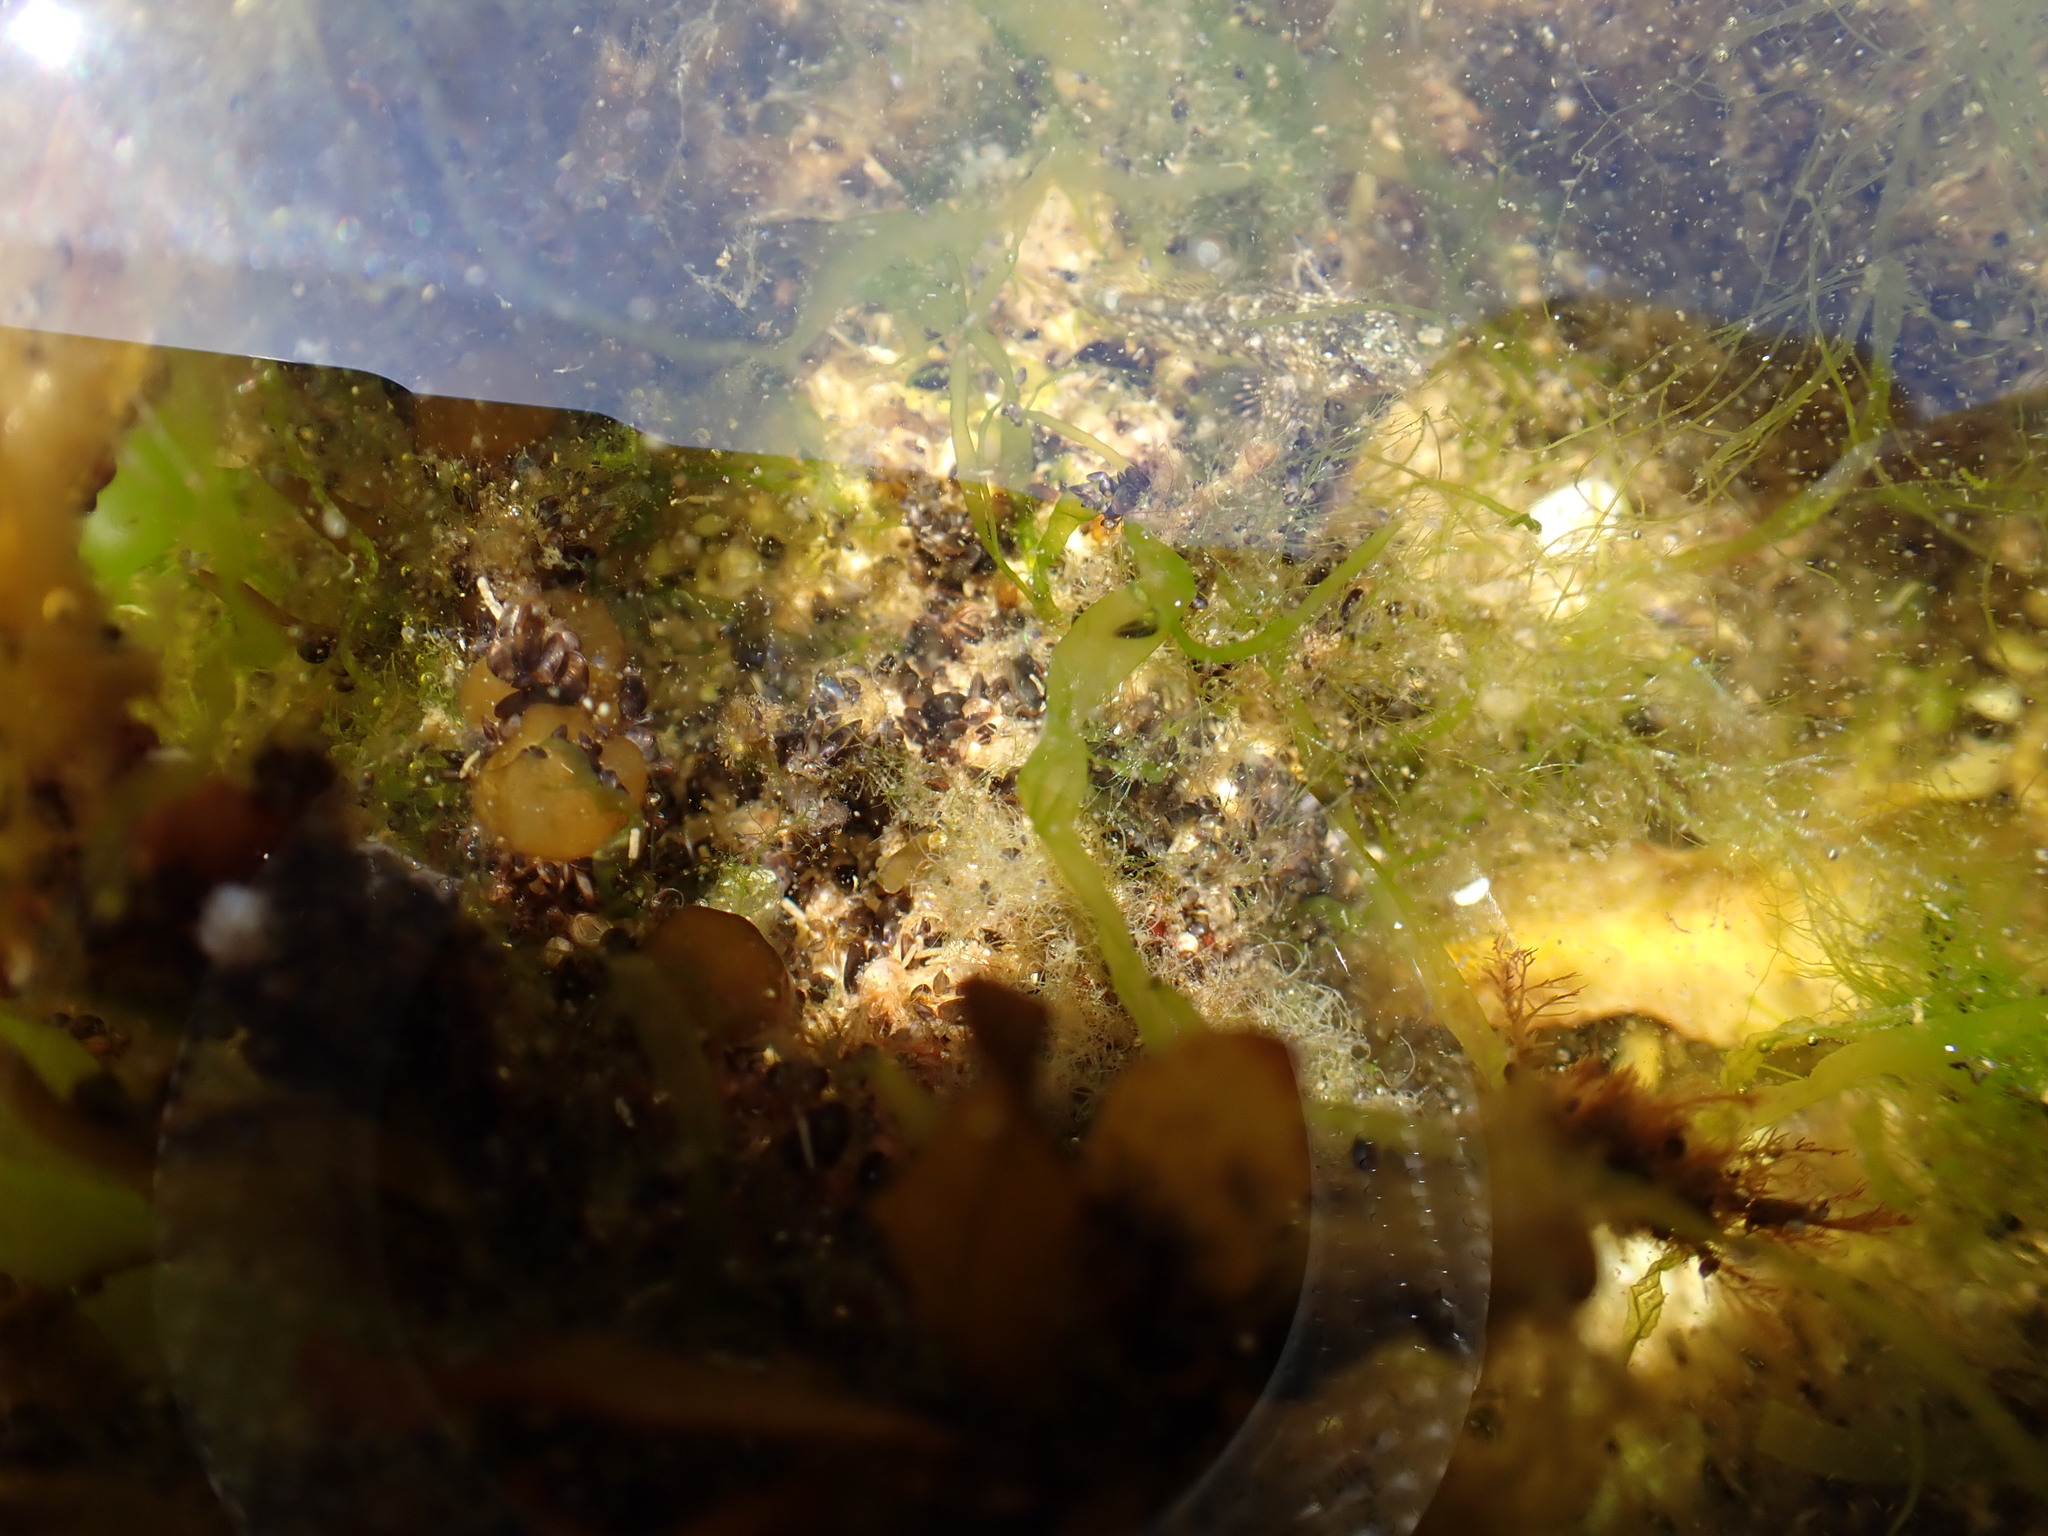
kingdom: Animalia
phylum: Chordata
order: Scorpaeniformes
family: Cottidae
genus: Oligocottus
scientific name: Oligocottus maculosus
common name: Tidepool sculpin
